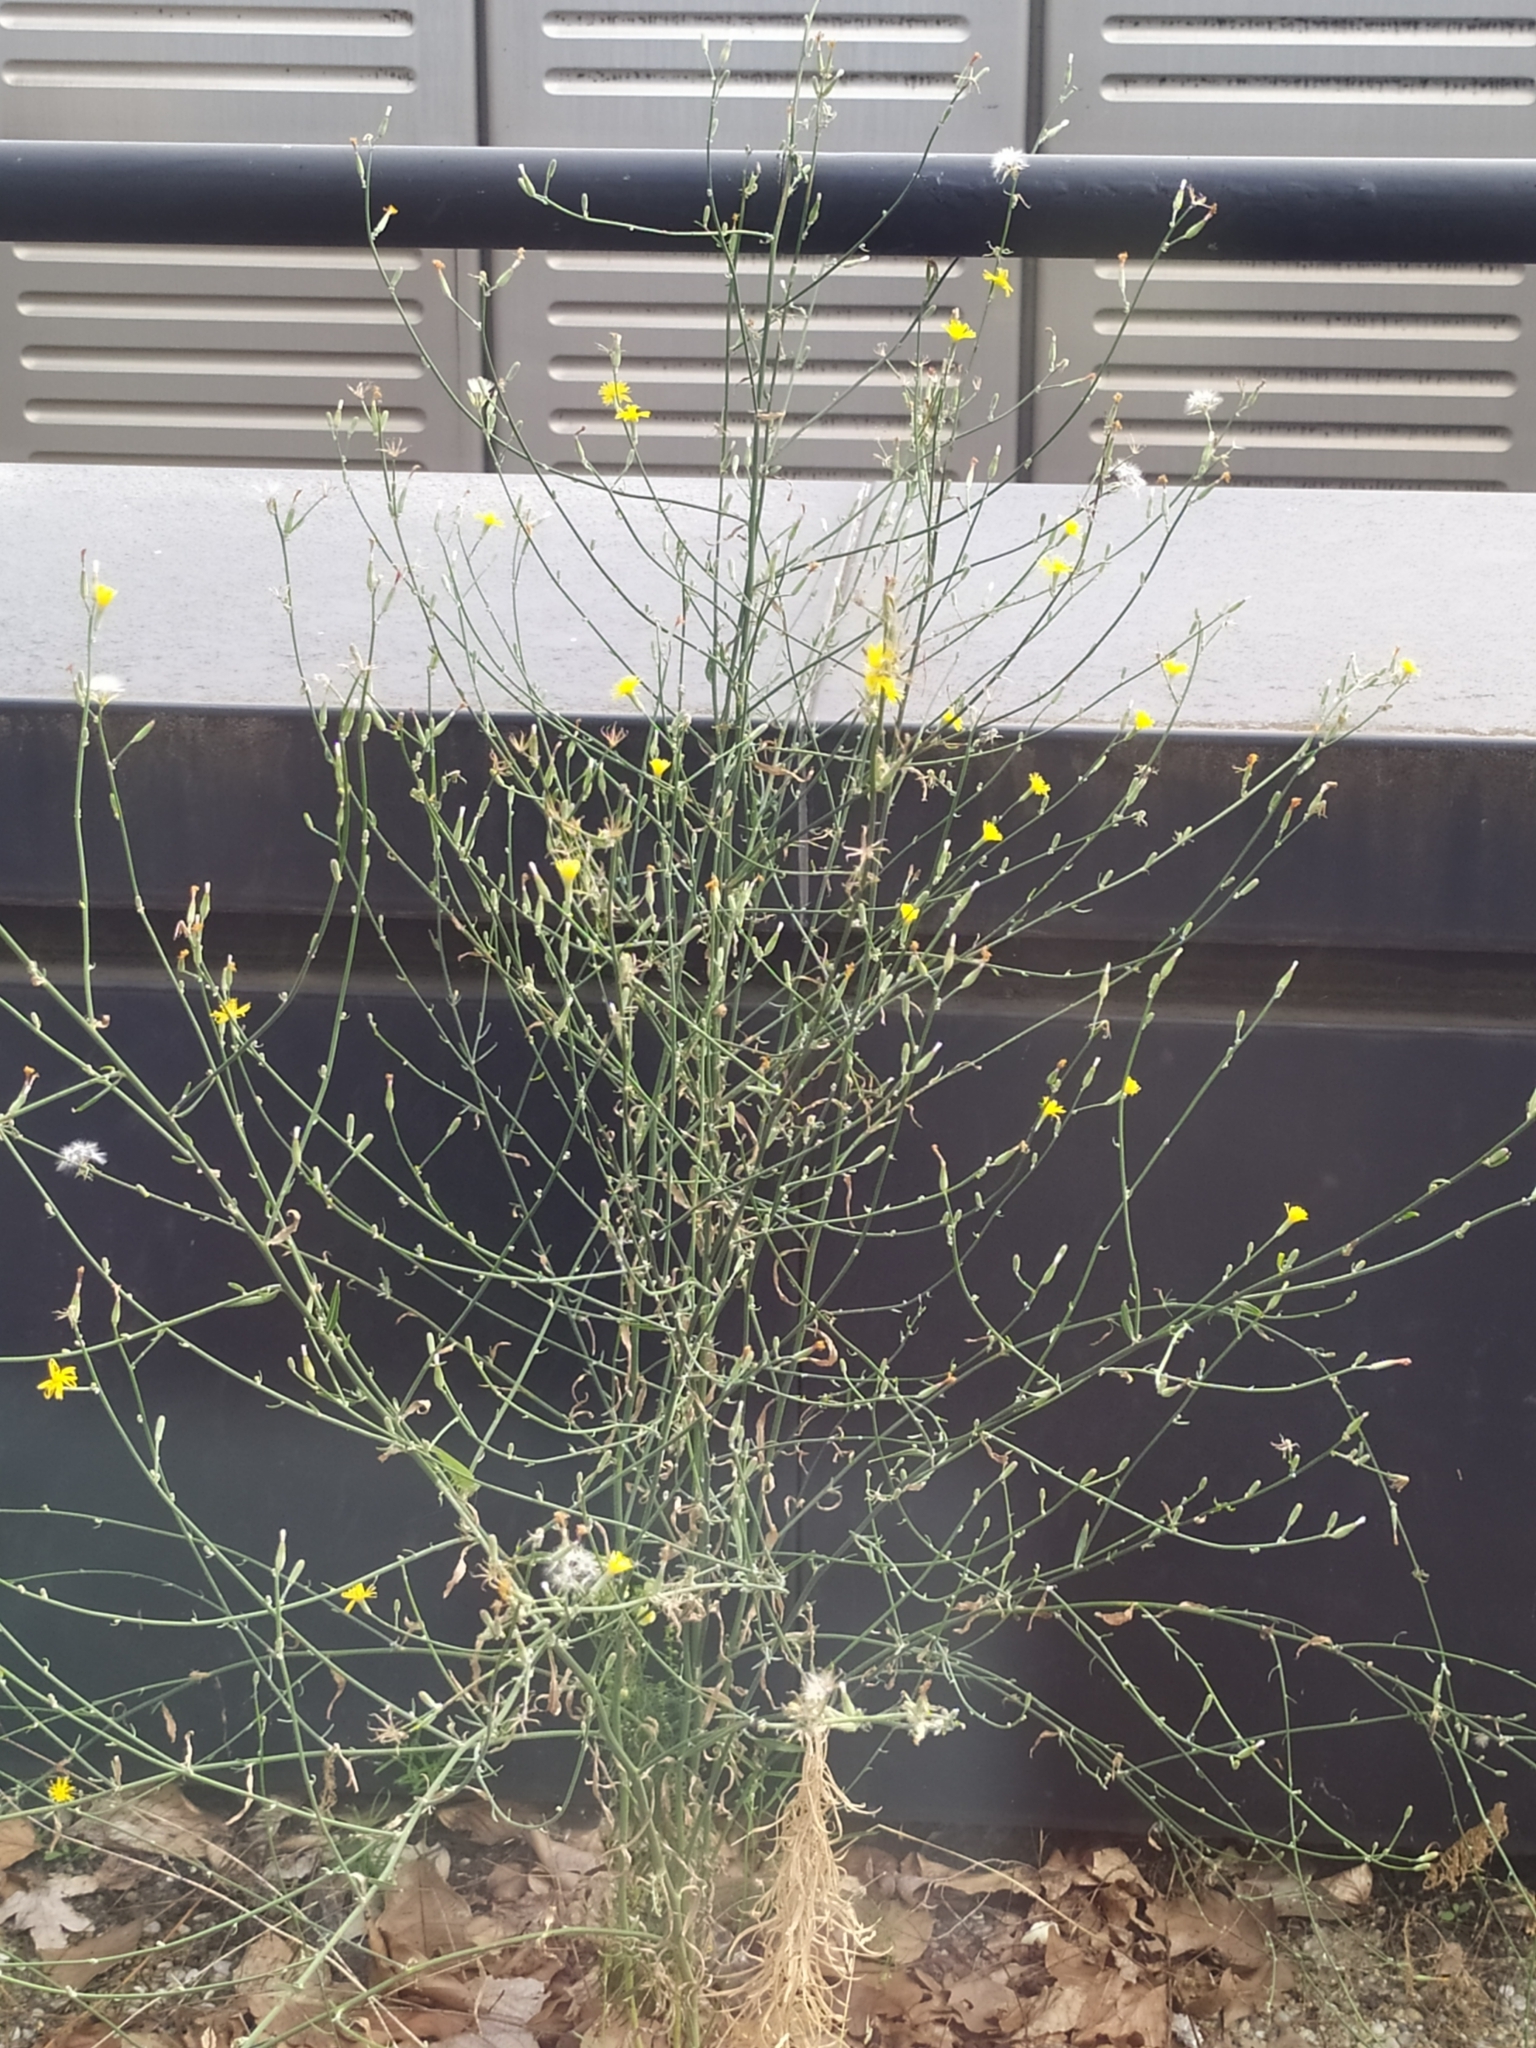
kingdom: Plantae
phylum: Tracheophyta
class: Magnoliopsida
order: Asterales
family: Asteraceae
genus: Chondrilla
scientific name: Chondrilla juncea
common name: Skeleton weed
